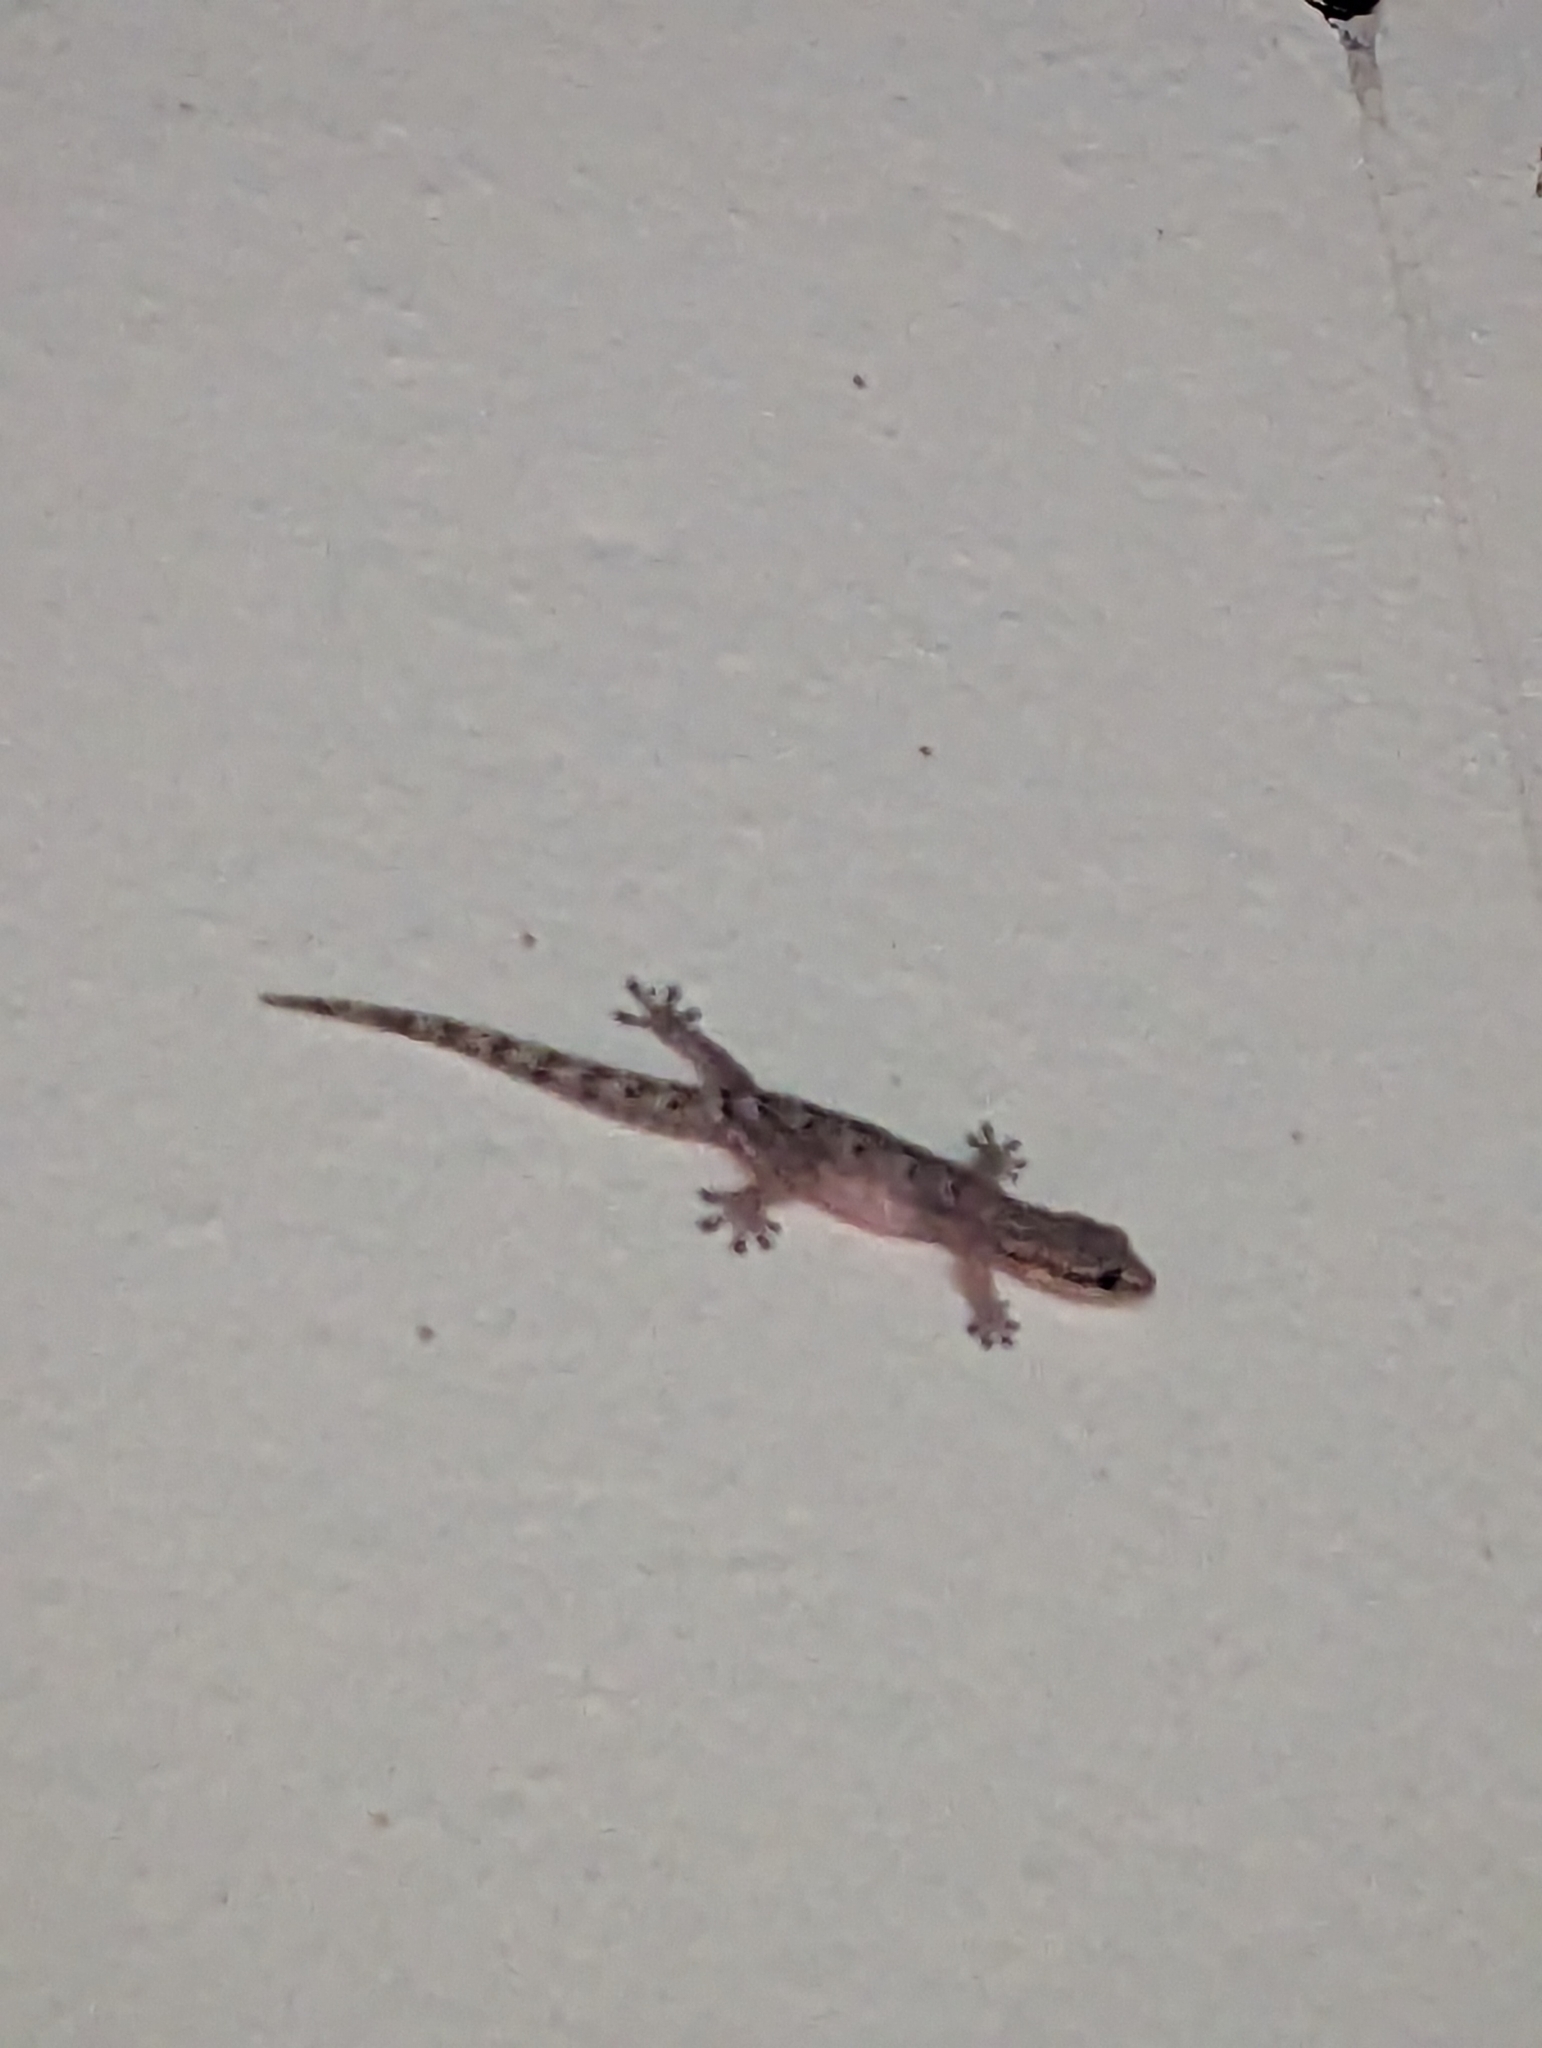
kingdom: Animalia
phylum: Chordata
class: Squamata
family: Gekkonidae
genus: Lepidodactylus
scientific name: Lepidodactylus lugubris
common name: Mourning gecko
